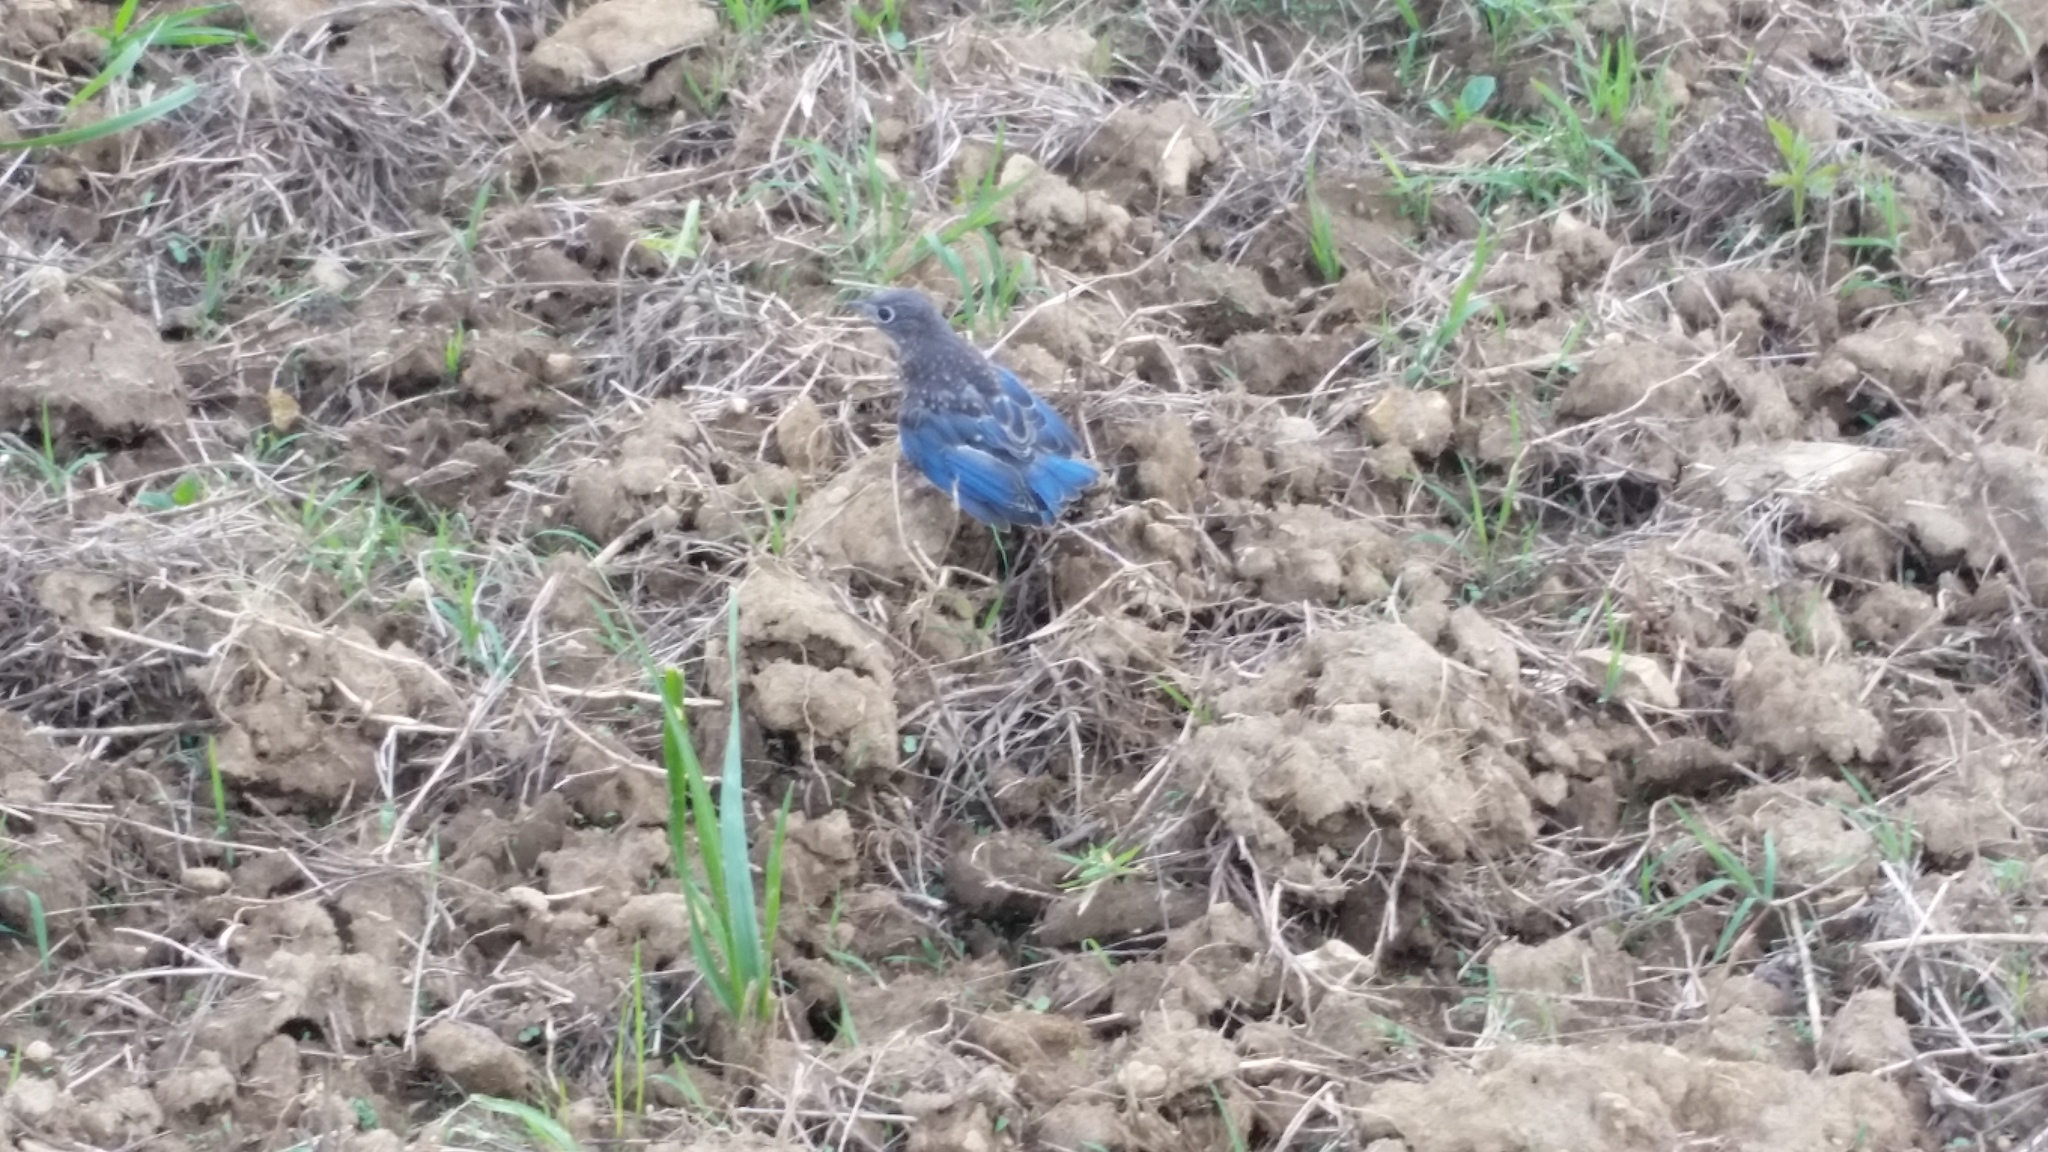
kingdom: Animalia
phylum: Chordata
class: Aves
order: Passeriformes
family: Turdidae
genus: Sialia
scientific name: Sialia sialis
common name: Eastern bluebird
